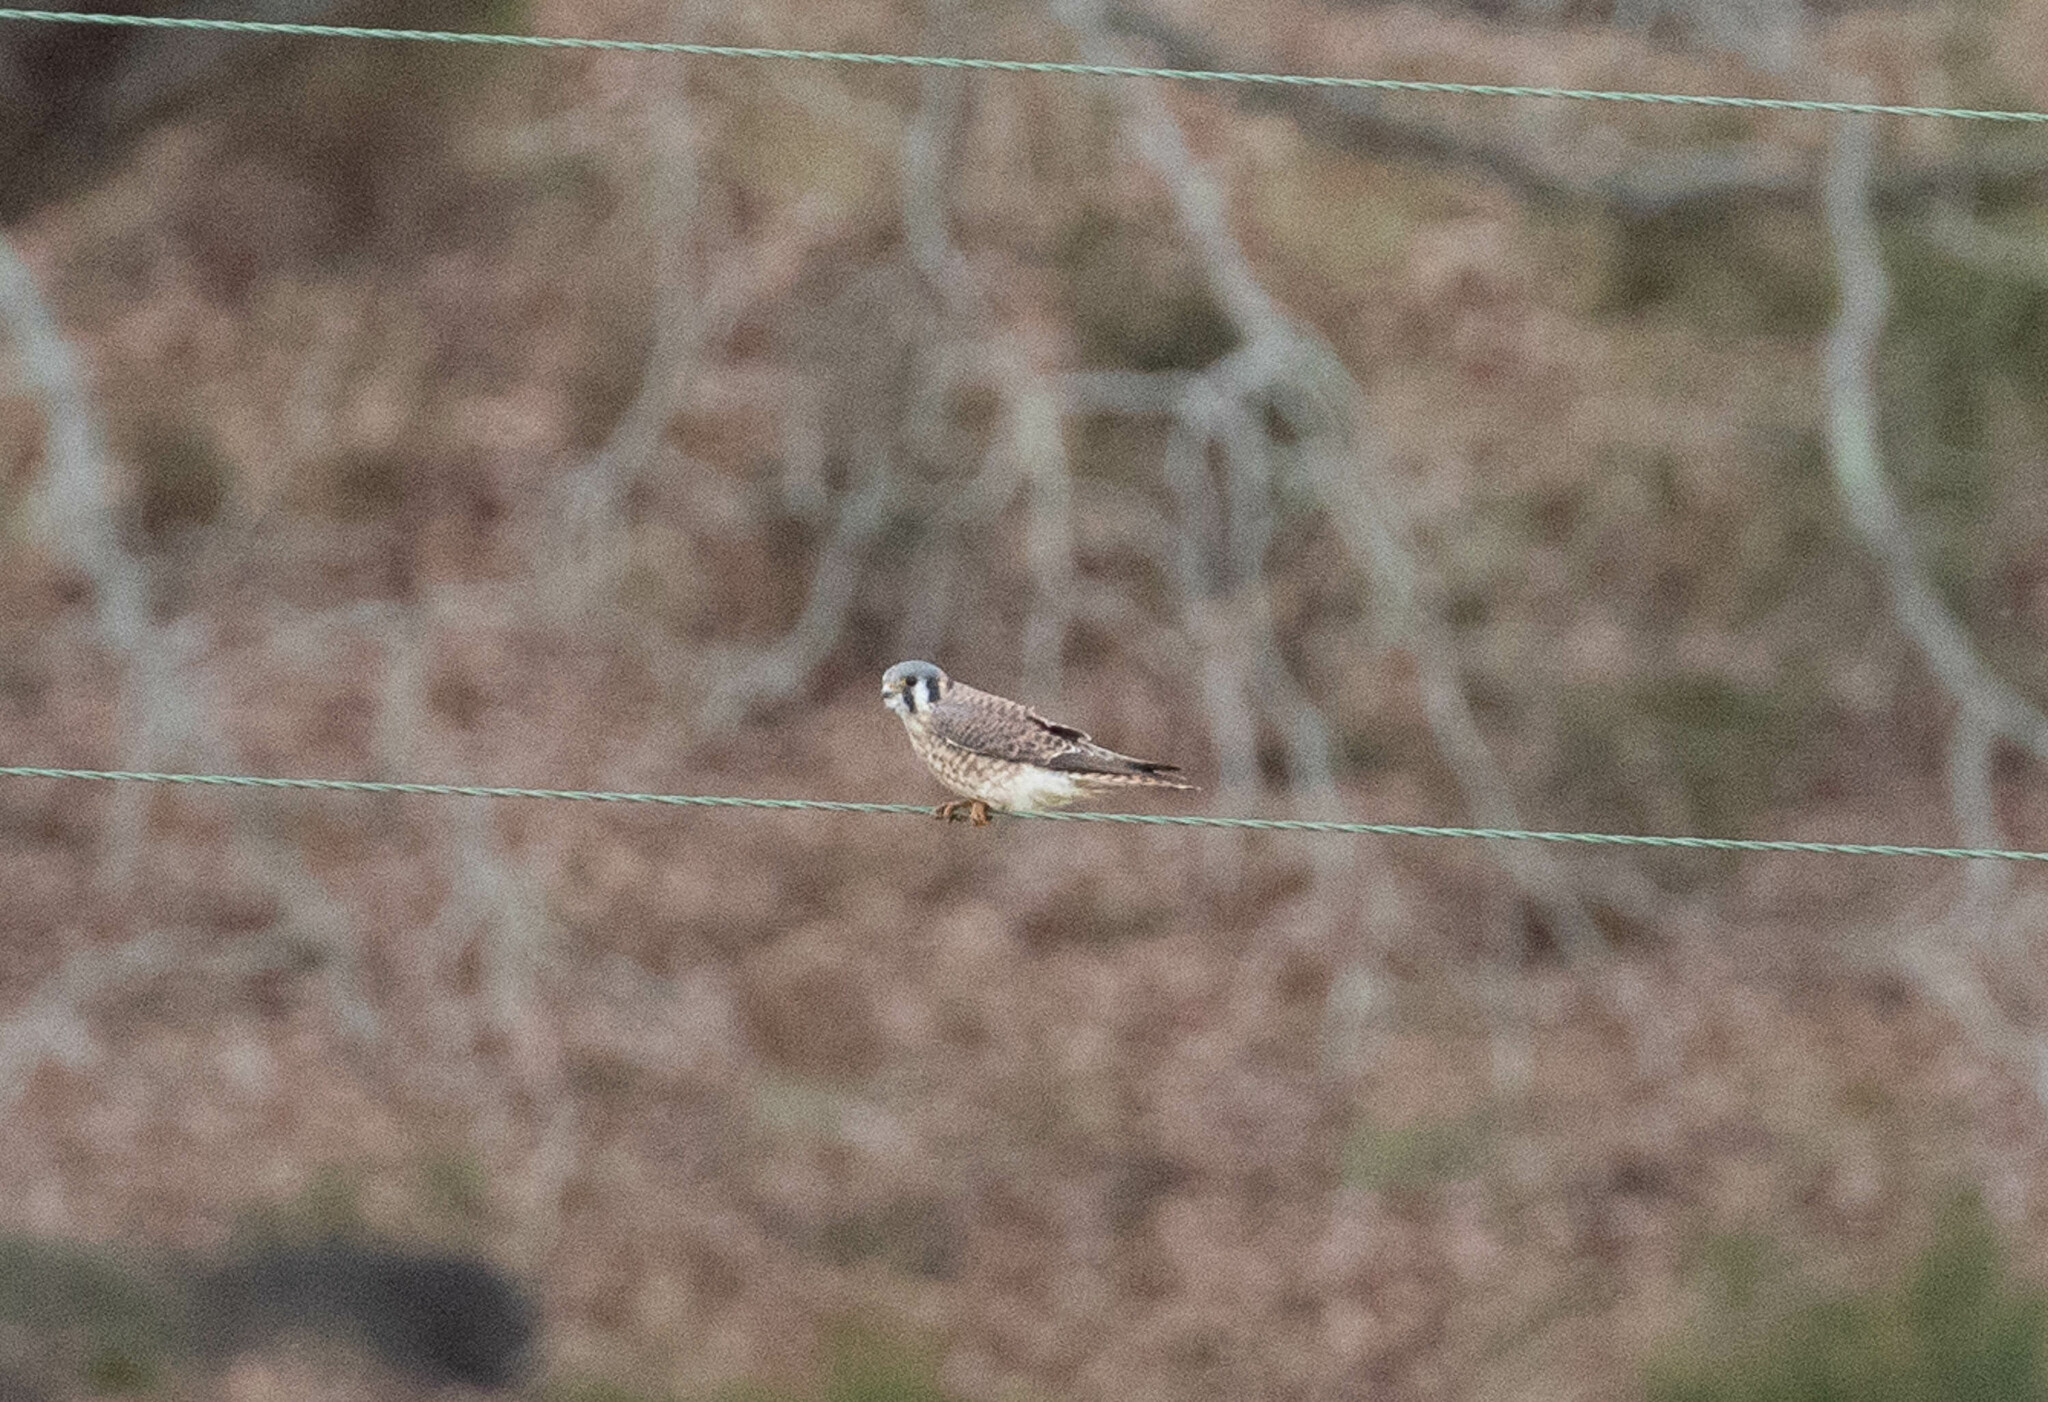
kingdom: Animalia
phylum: Chordata
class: Aves
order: Falconiformes
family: Falconidae
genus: Falco
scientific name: Falco sparverius
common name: American kestrel
